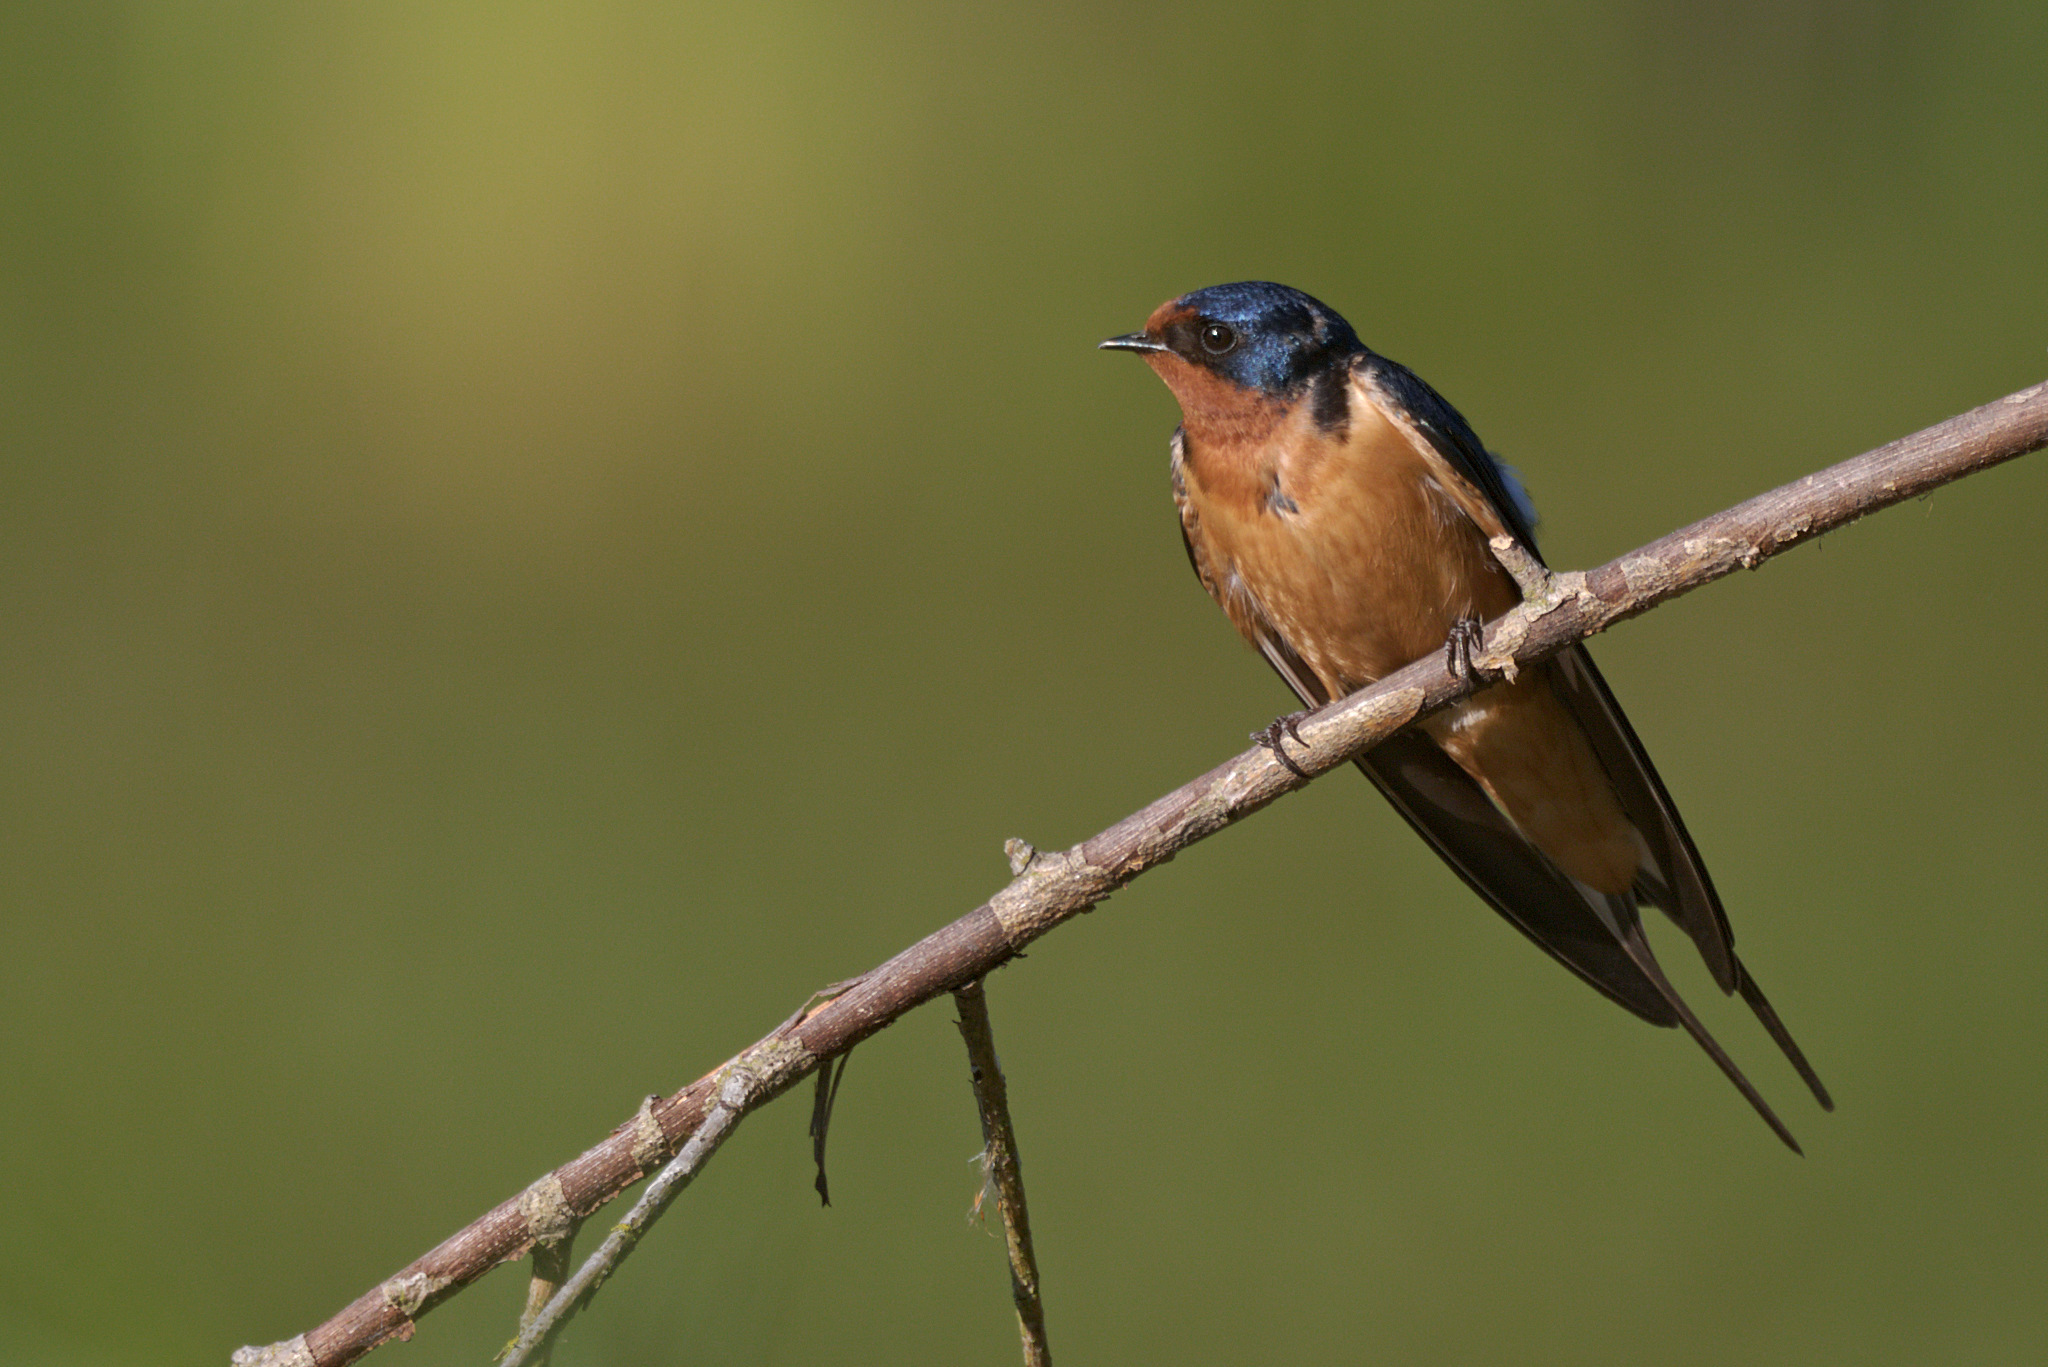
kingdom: Animalia
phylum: Chordata
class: Aves
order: Passeriformes
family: Hirundinidae
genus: Hirundo
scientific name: Hirundo rustica
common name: Barn swallow
